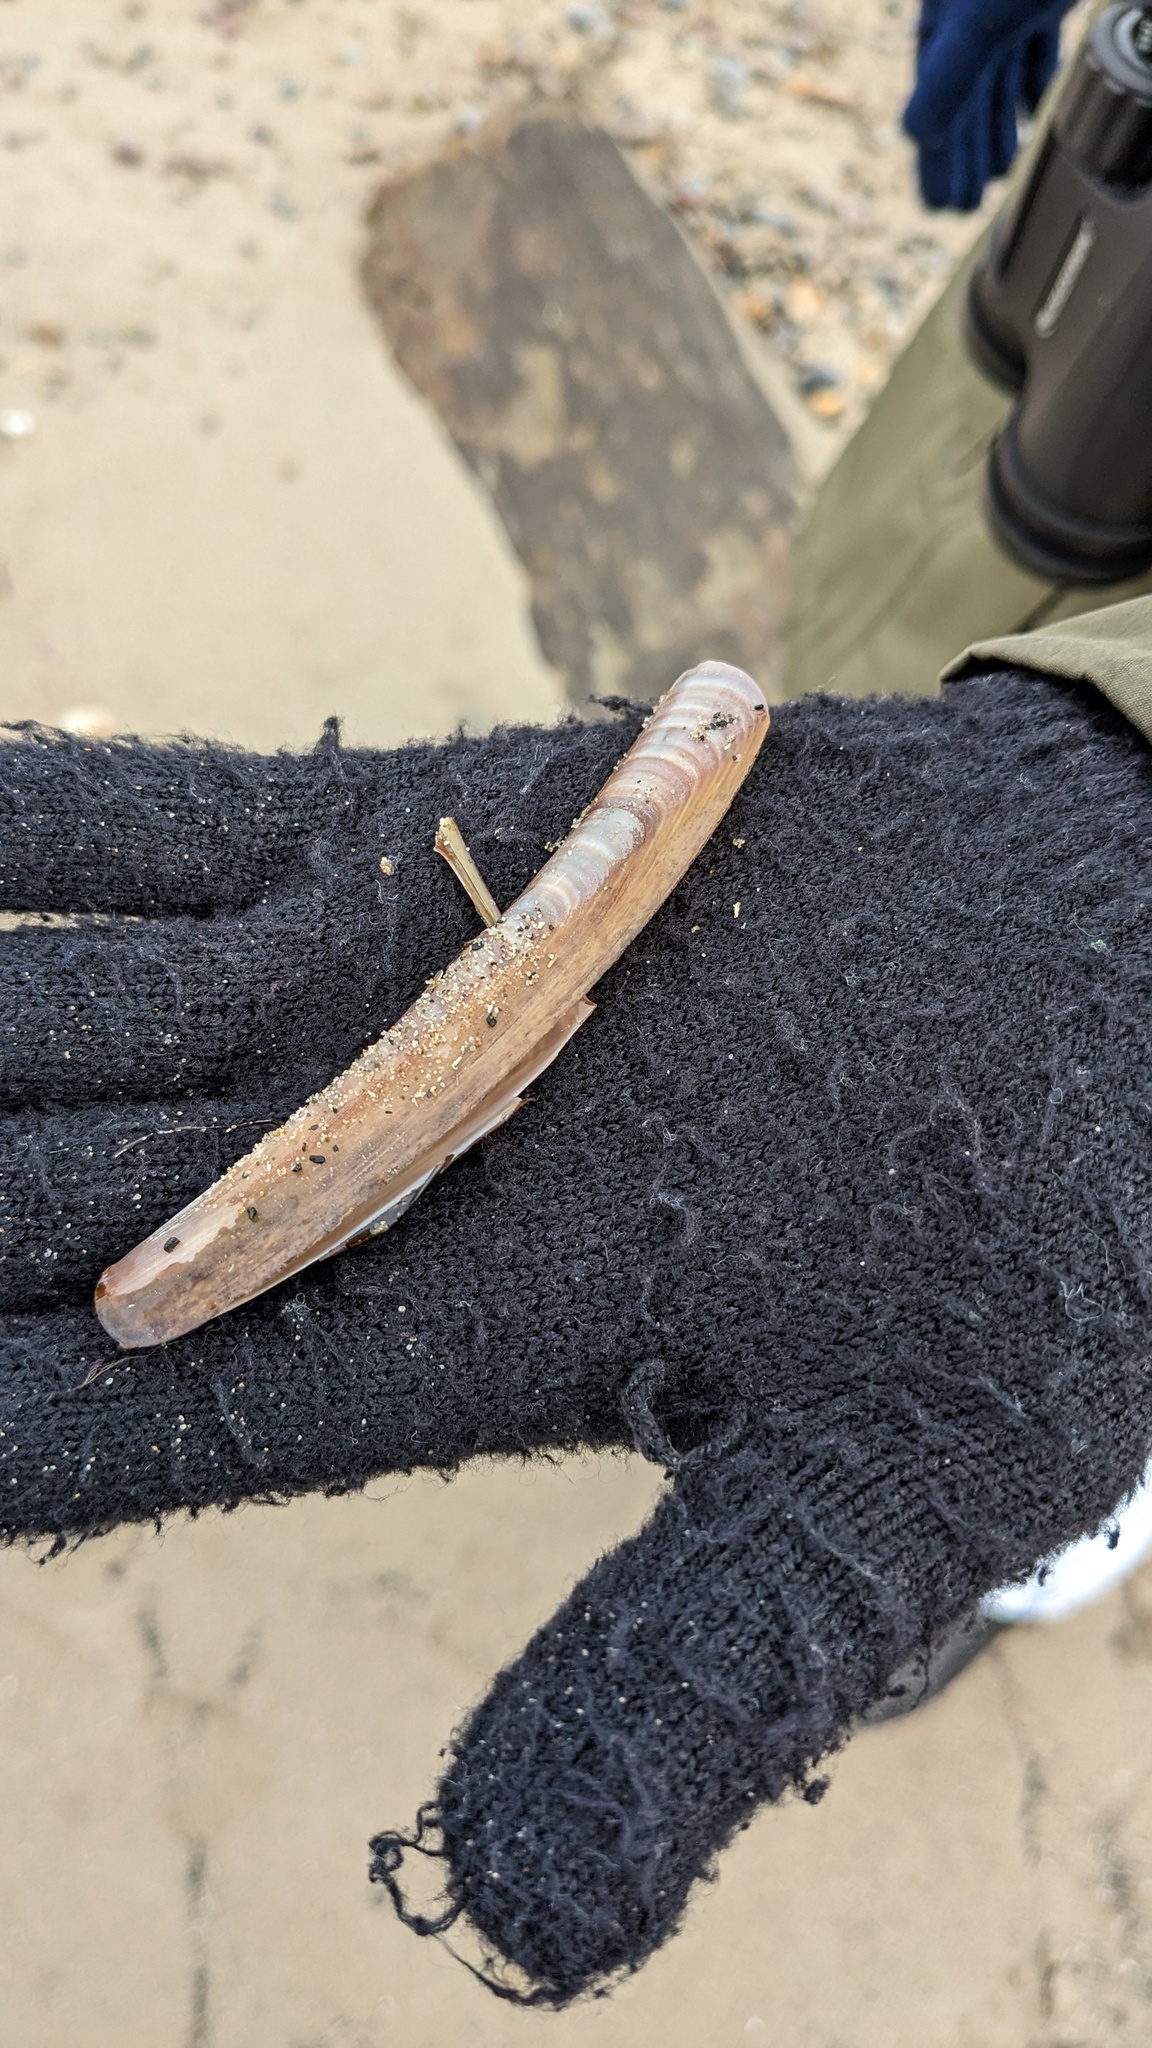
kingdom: Animalia
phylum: Mollusca
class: Bivalvia
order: Adapedonta
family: Pharidae
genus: Ensis
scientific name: Ensis leei
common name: American jack knife clam
